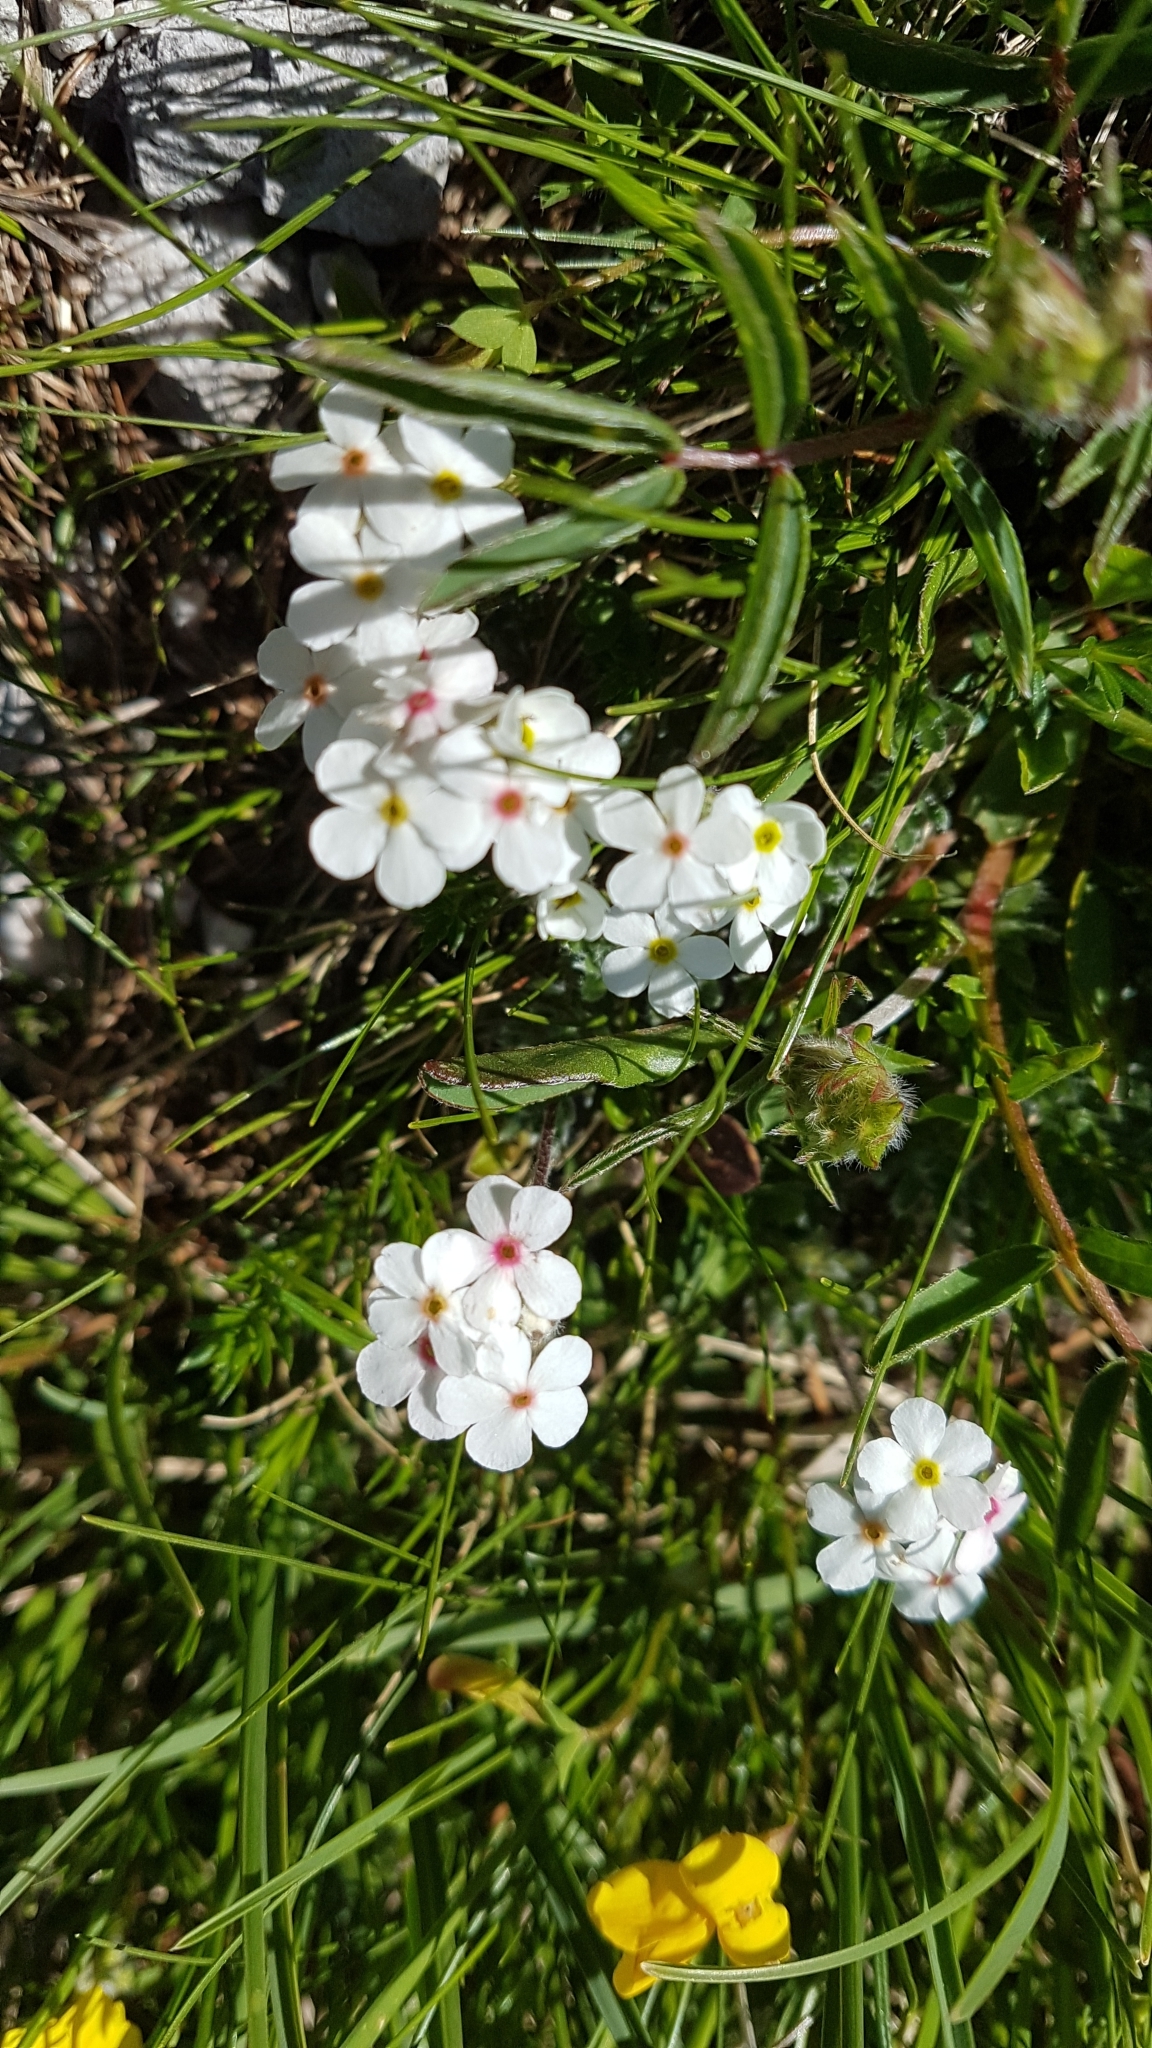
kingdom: Plantae
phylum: Tracheophyta
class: Magnoliopsida
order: Ericales
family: Primulaceae
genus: Androsace
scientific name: Androsace villosa
